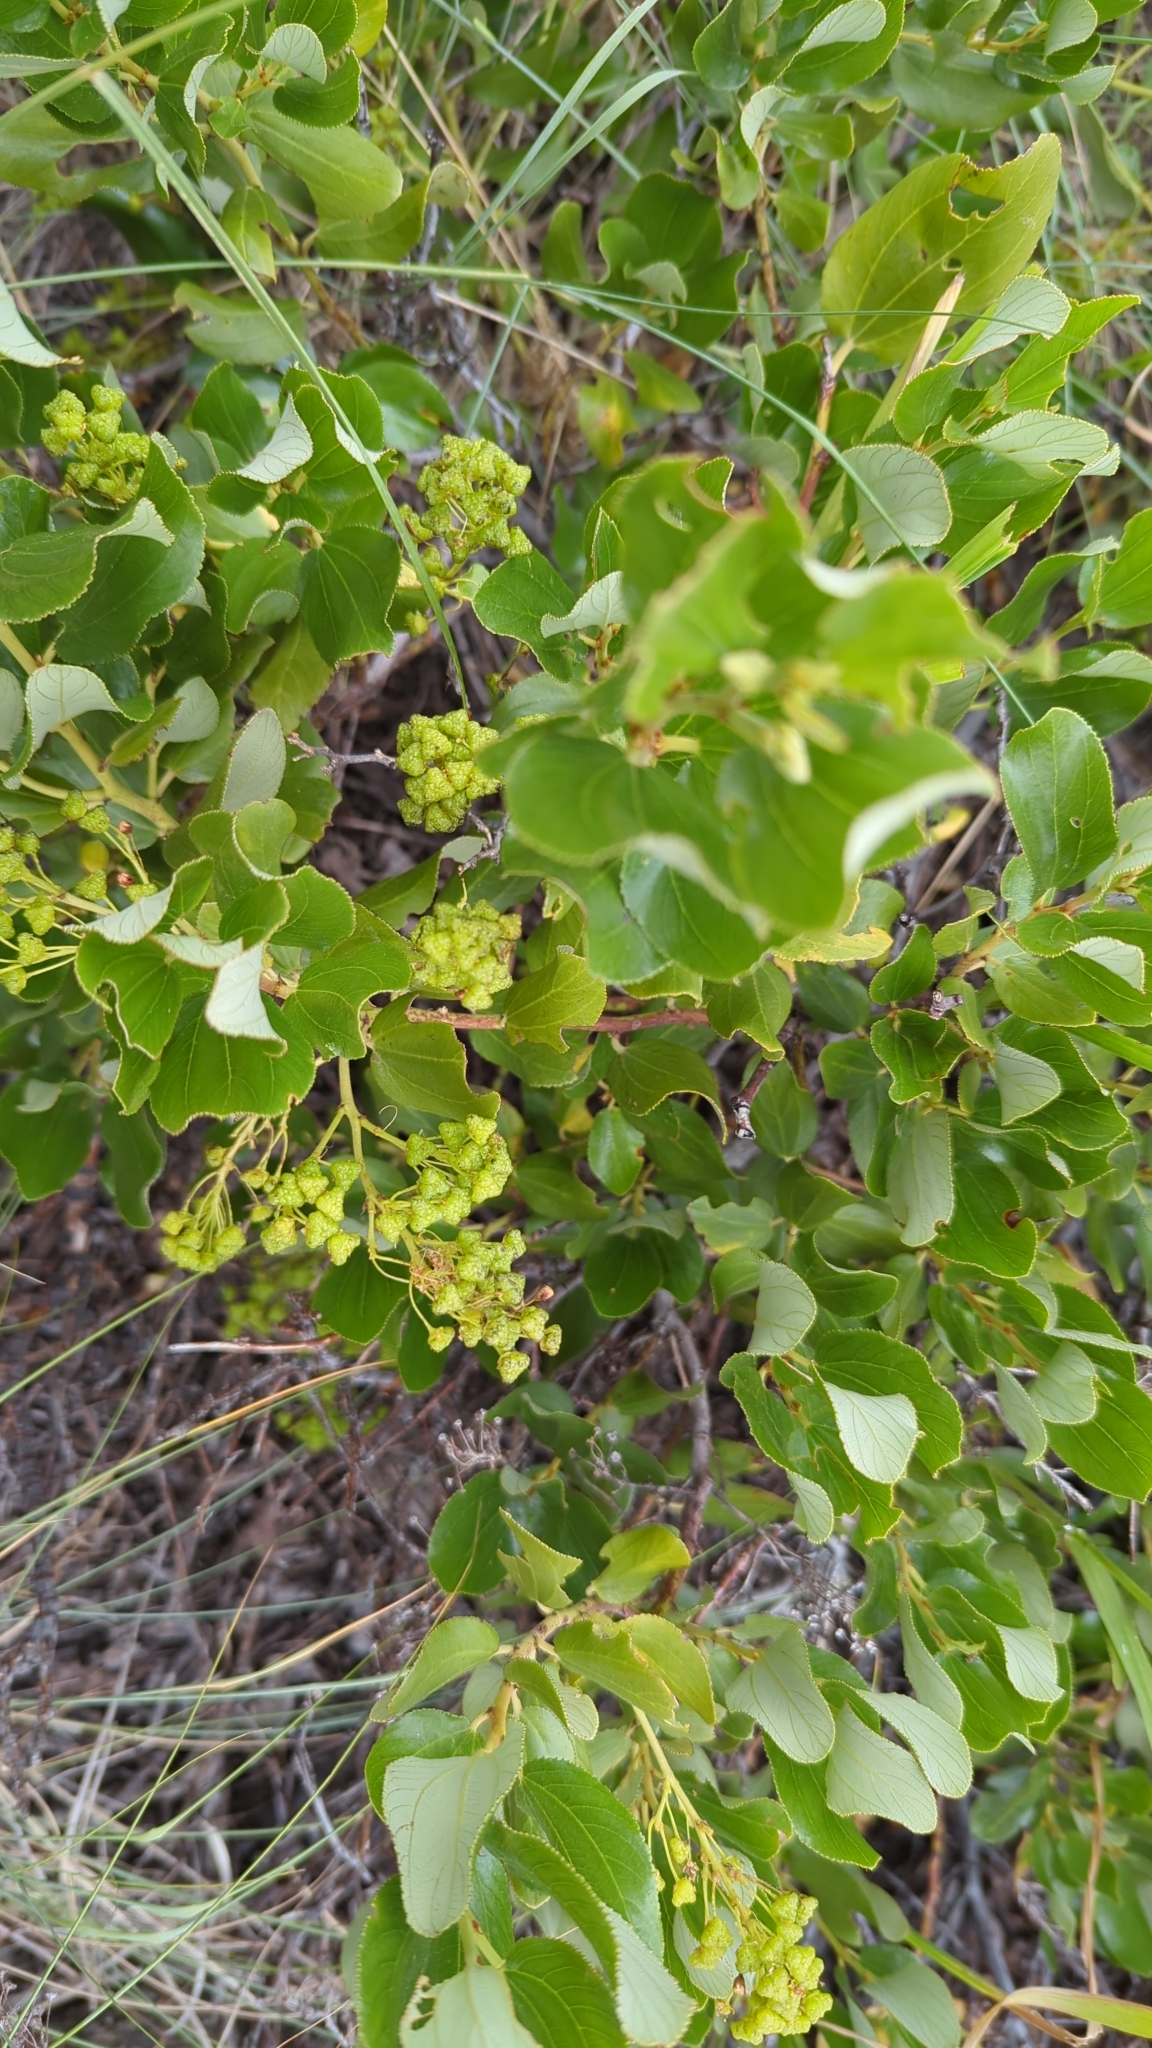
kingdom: Plantae
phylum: Tracheophyta
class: Magnoliopsida
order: Rosales
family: Rhamnaceae
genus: Ceanothus
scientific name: Ceanothus velutinus
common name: Snowbrush
